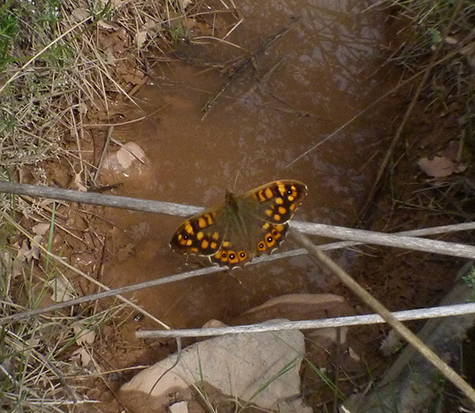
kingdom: Animalia
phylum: Arthropoda
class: Insecta
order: Lepidoptera
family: Nymphalidae
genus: Pararge
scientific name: Pararge aegeria
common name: Speckled wood
